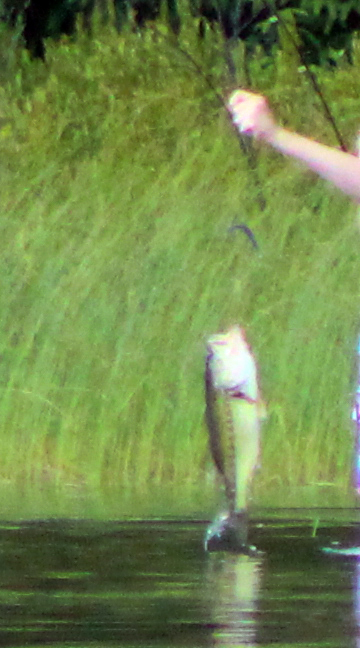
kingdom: Animalia
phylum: Chordata
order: Perciformes
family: Centrarchidae
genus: Micropterus
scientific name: Micropterus
